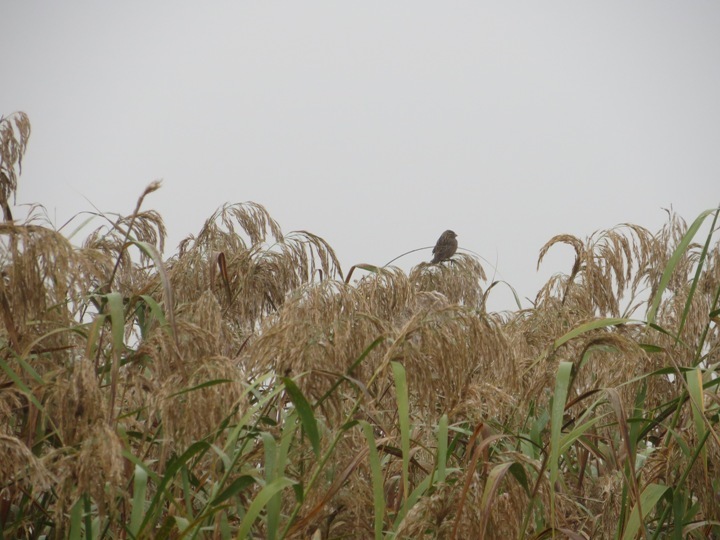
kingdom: Plantae
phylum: Tracheophyta
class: Liliopsida
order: Poales
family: Poaceae
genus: Phragmites
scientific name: Phragmites australis
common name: Common reed
